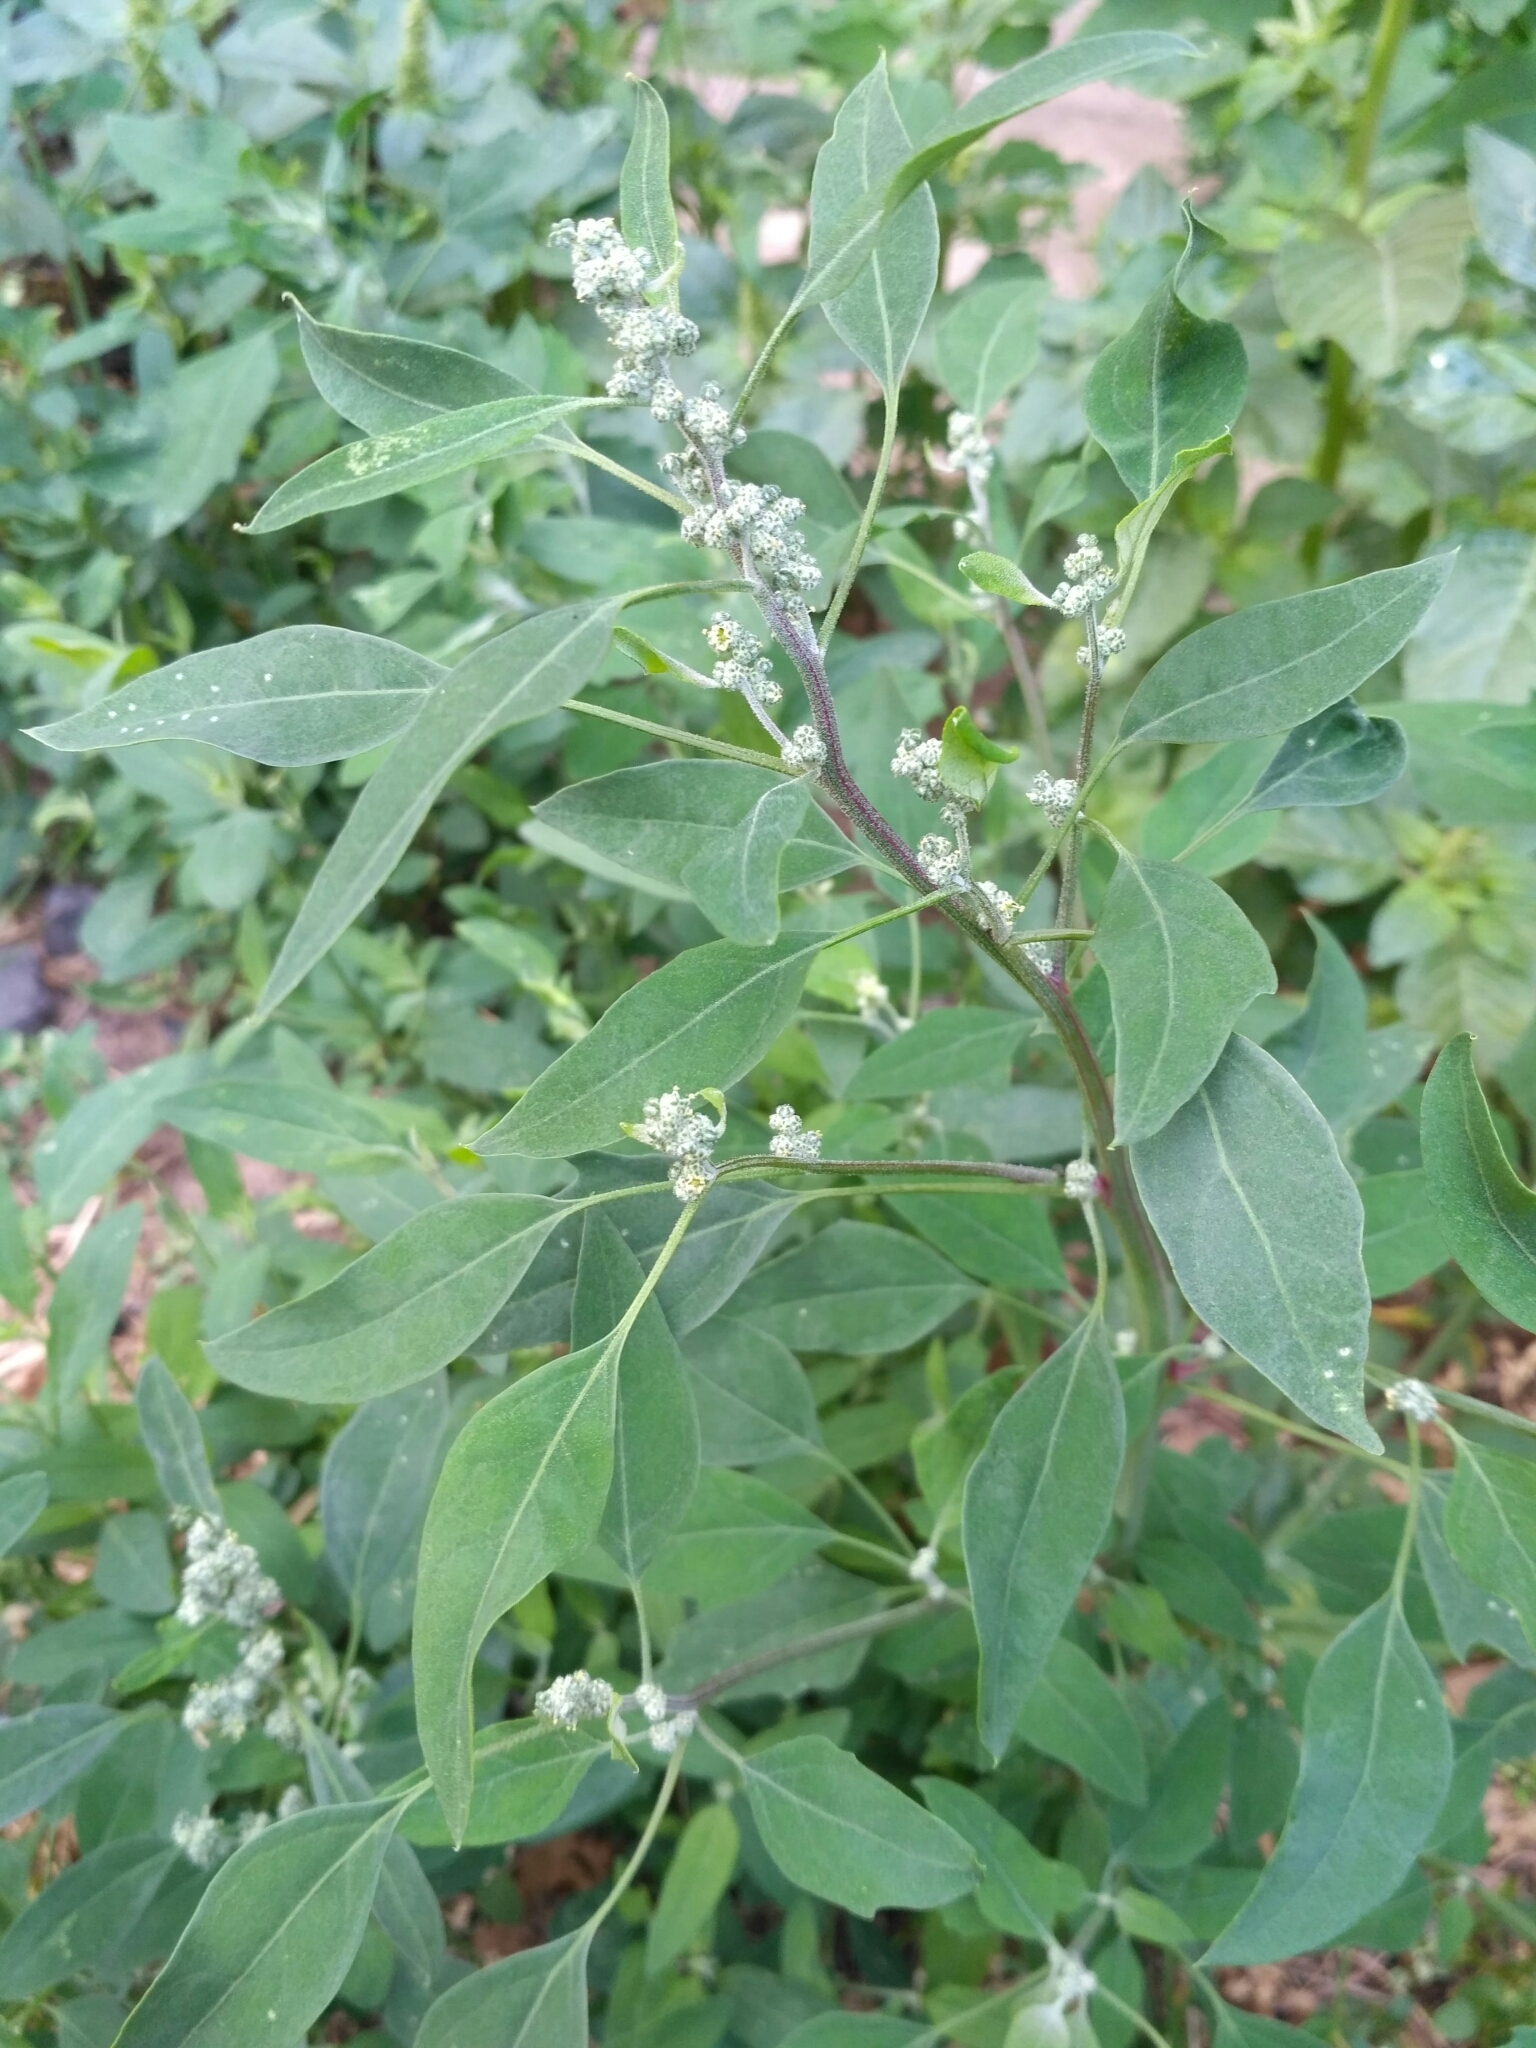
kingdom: Plantae
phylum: Tracheophyta
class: Magnoliopsida
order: Caryophyllales
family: Amaranthaceae
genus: Chenopodium
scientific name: Chenopodium album
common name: Fat-hen
